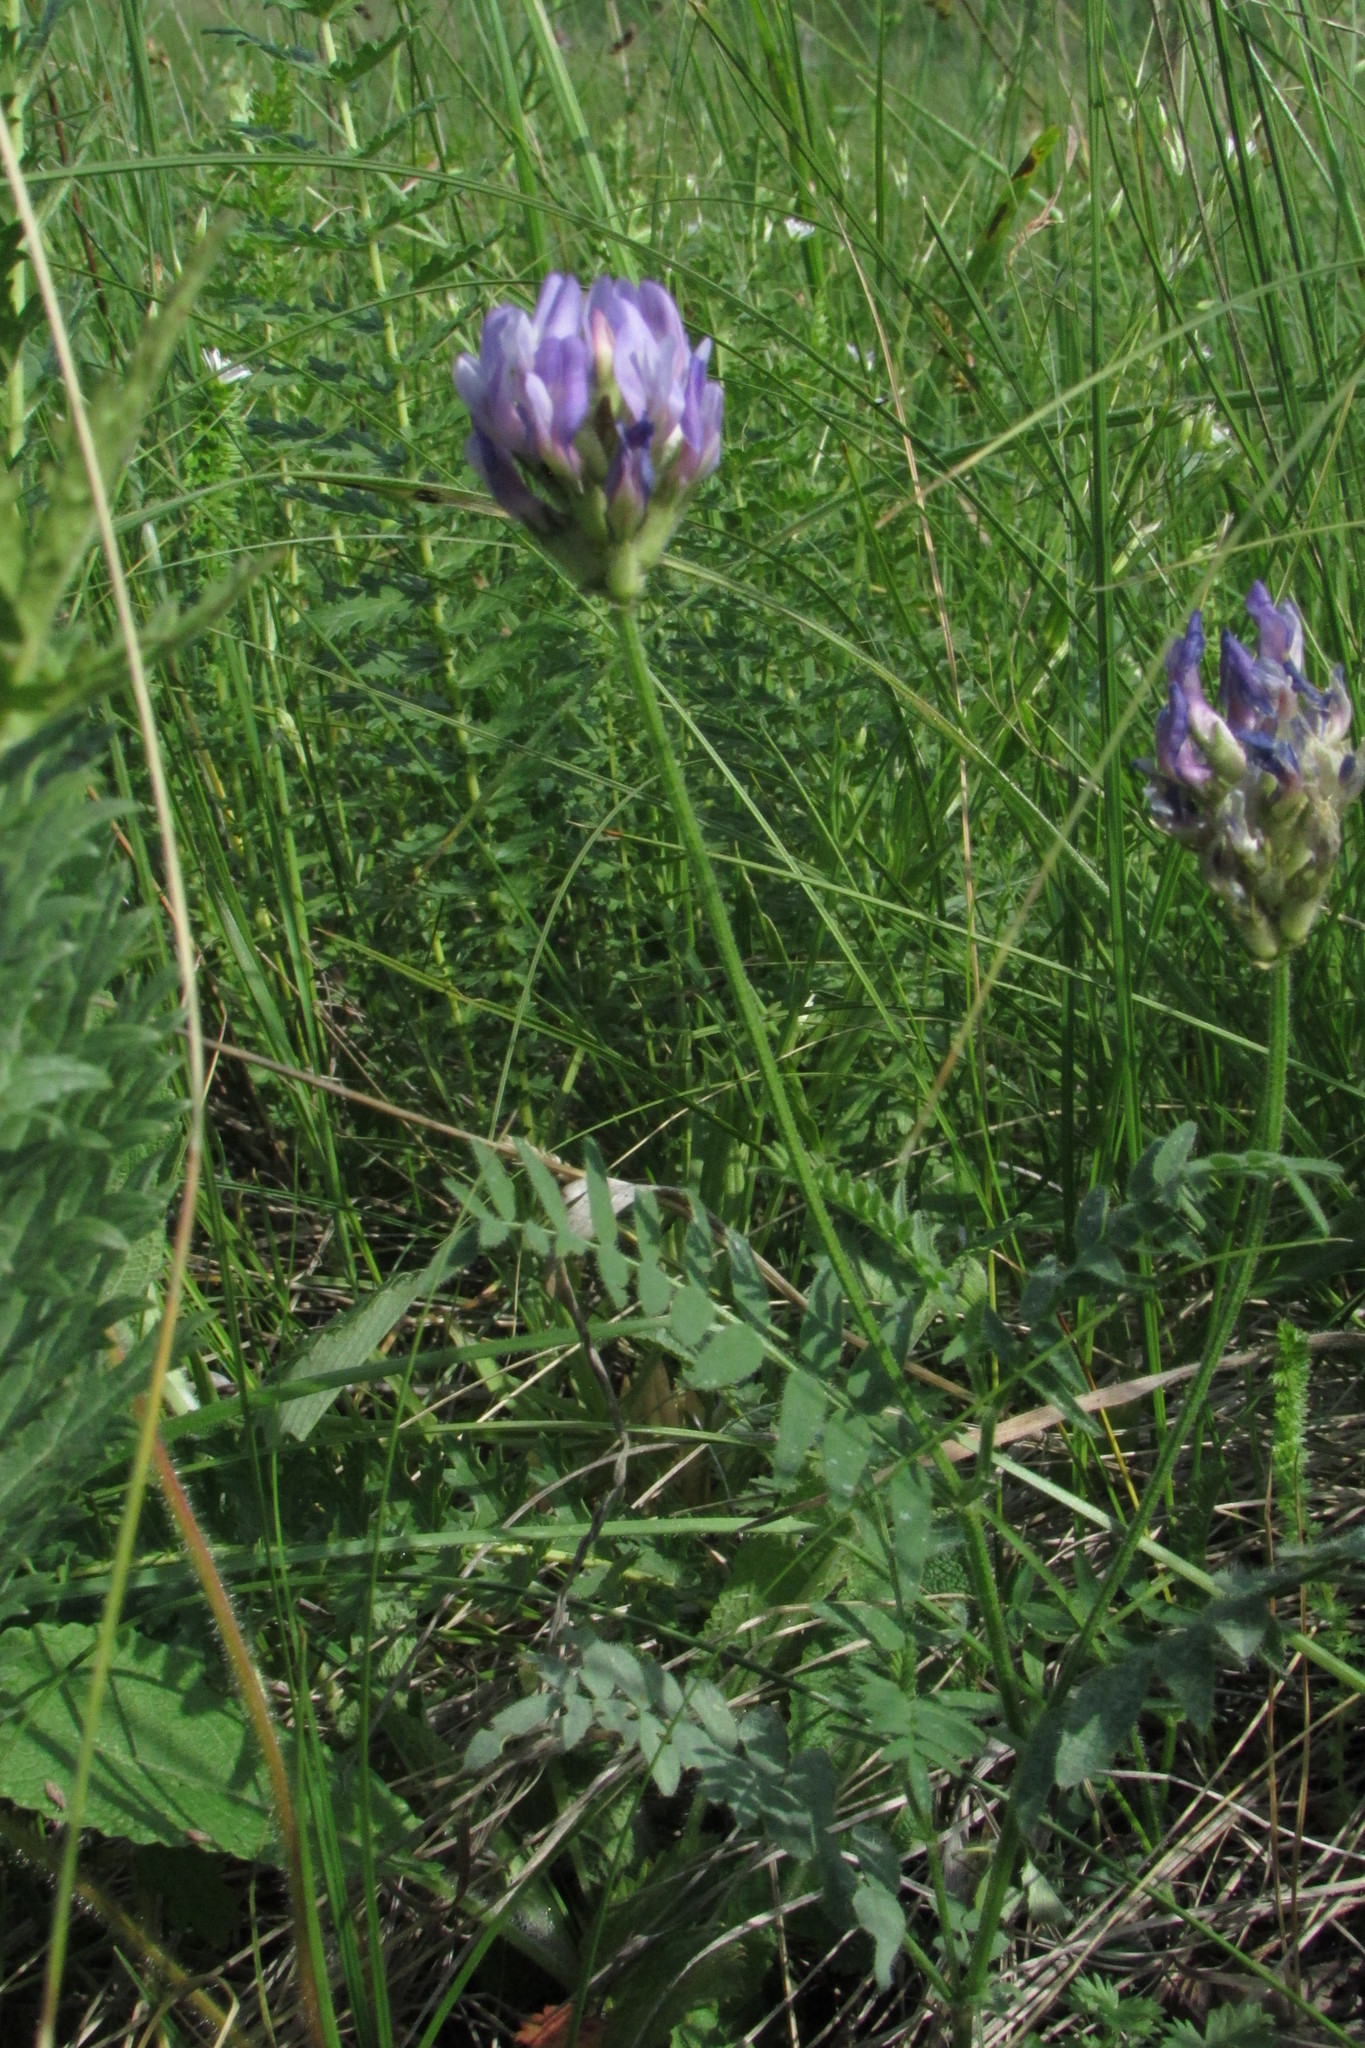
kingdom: Plantae
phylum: Tracheophyta
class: Magnoliopsida
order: Fabales
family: Fabaceae
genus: Astragalus
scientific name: Astragalus danicus
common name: Purple milk-vetch
